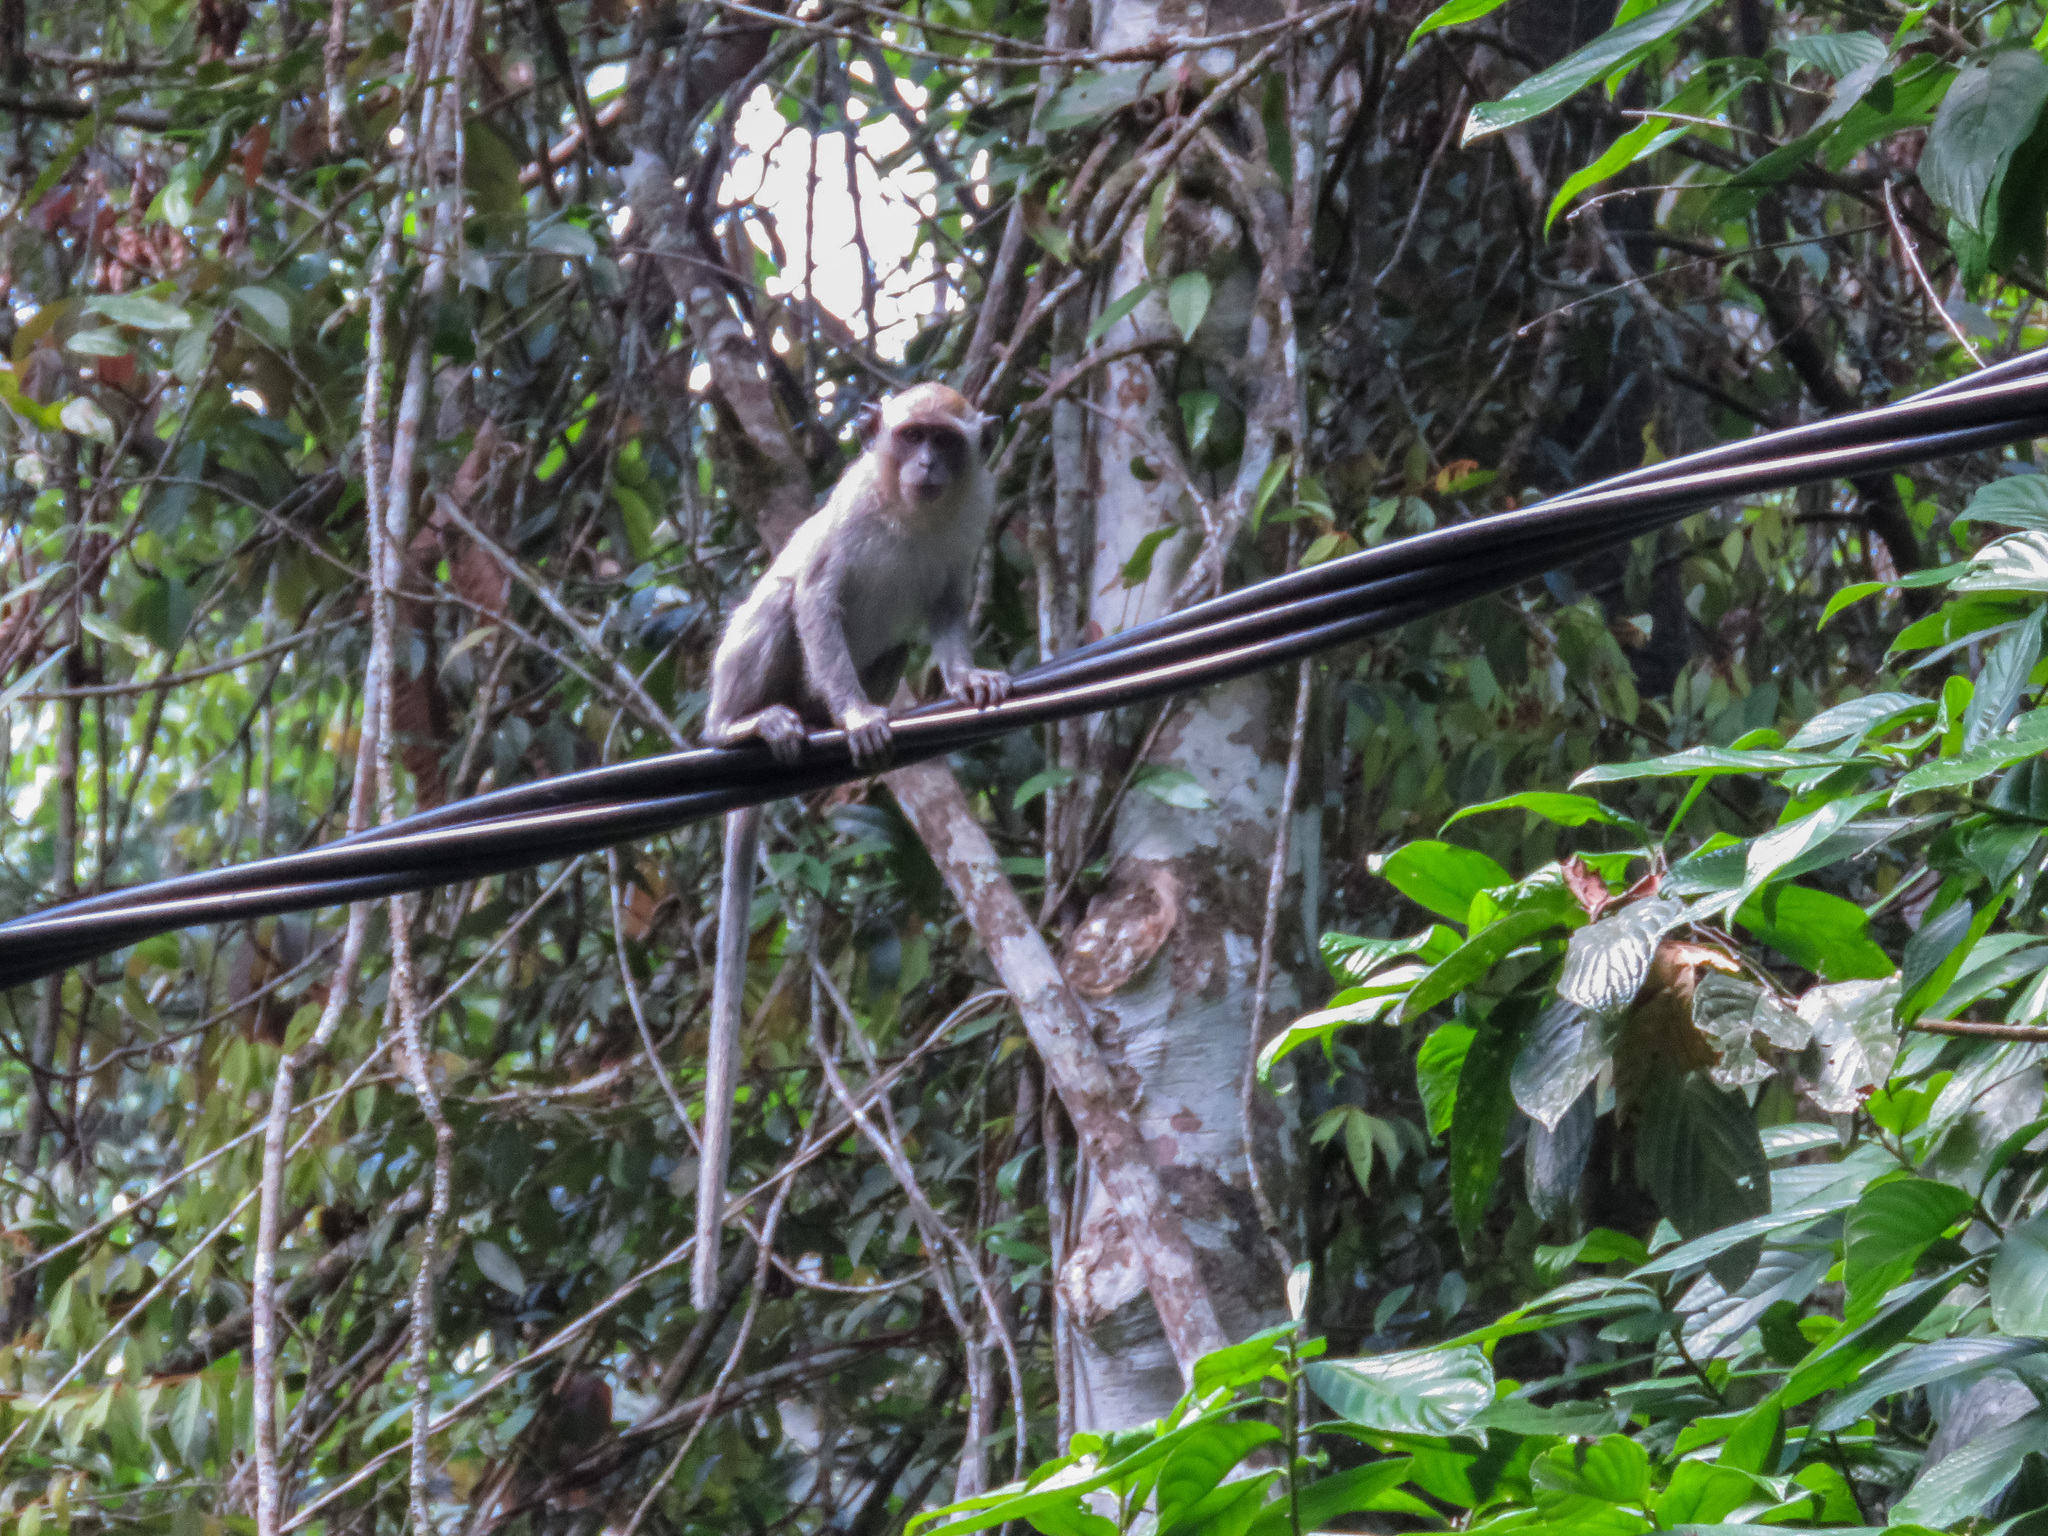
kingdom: Animalia
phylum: Chordata
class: Mammalia
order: Primates
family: Cercopithecidae
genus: Macaca
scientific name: Macaca fascicularis
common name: Crab-eating macaque
